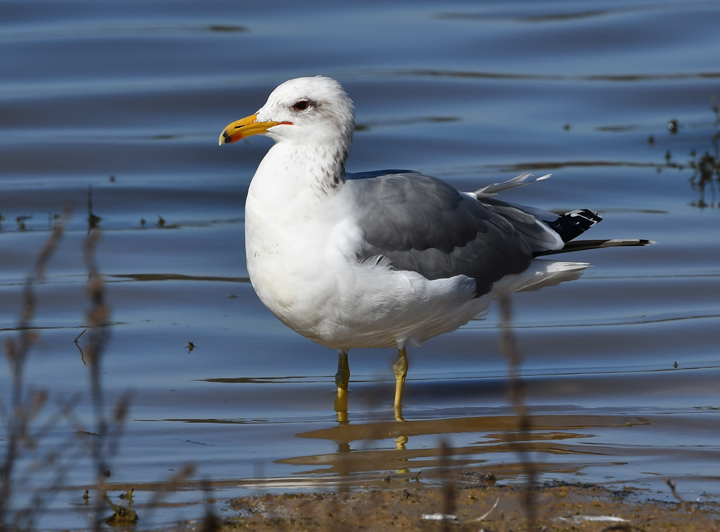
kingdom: Animalia
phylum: Chordata
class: Aves
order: Charadriiformes
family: Laridae
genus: Larus
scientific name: Larus californicus
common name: California gull
